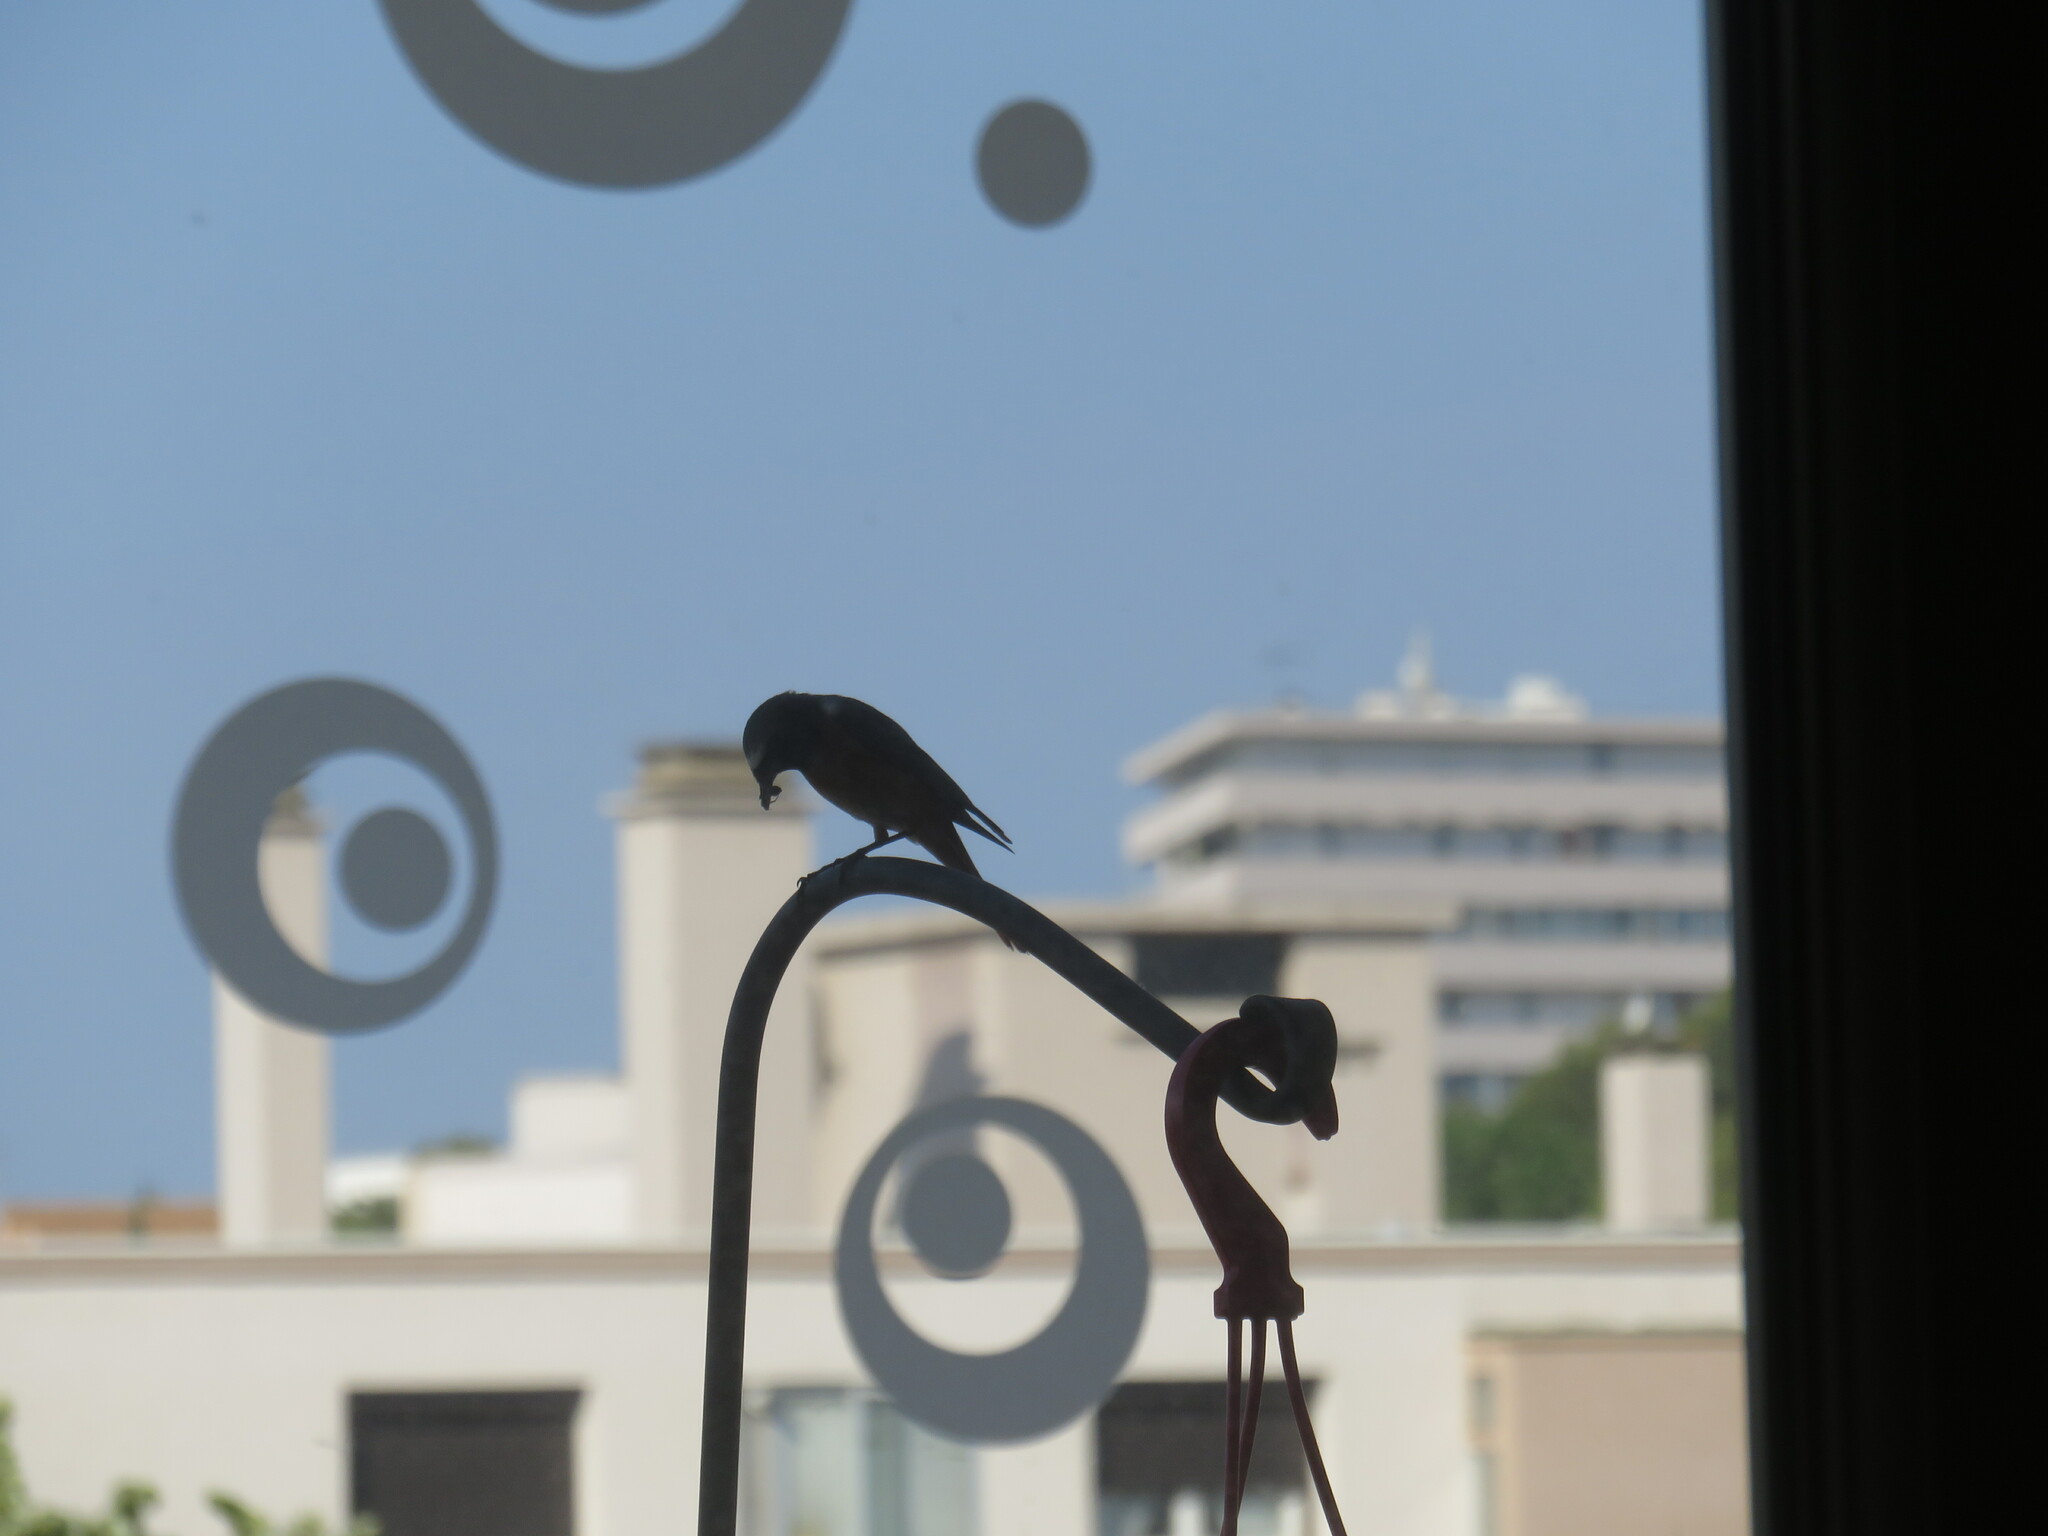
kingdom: Animalia
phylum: Chordata
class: Aves
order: Passeriformes
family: Muscicapidae
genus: Phoenicurus
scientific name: Phoenicurus phoenicurus
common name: Common redstart
